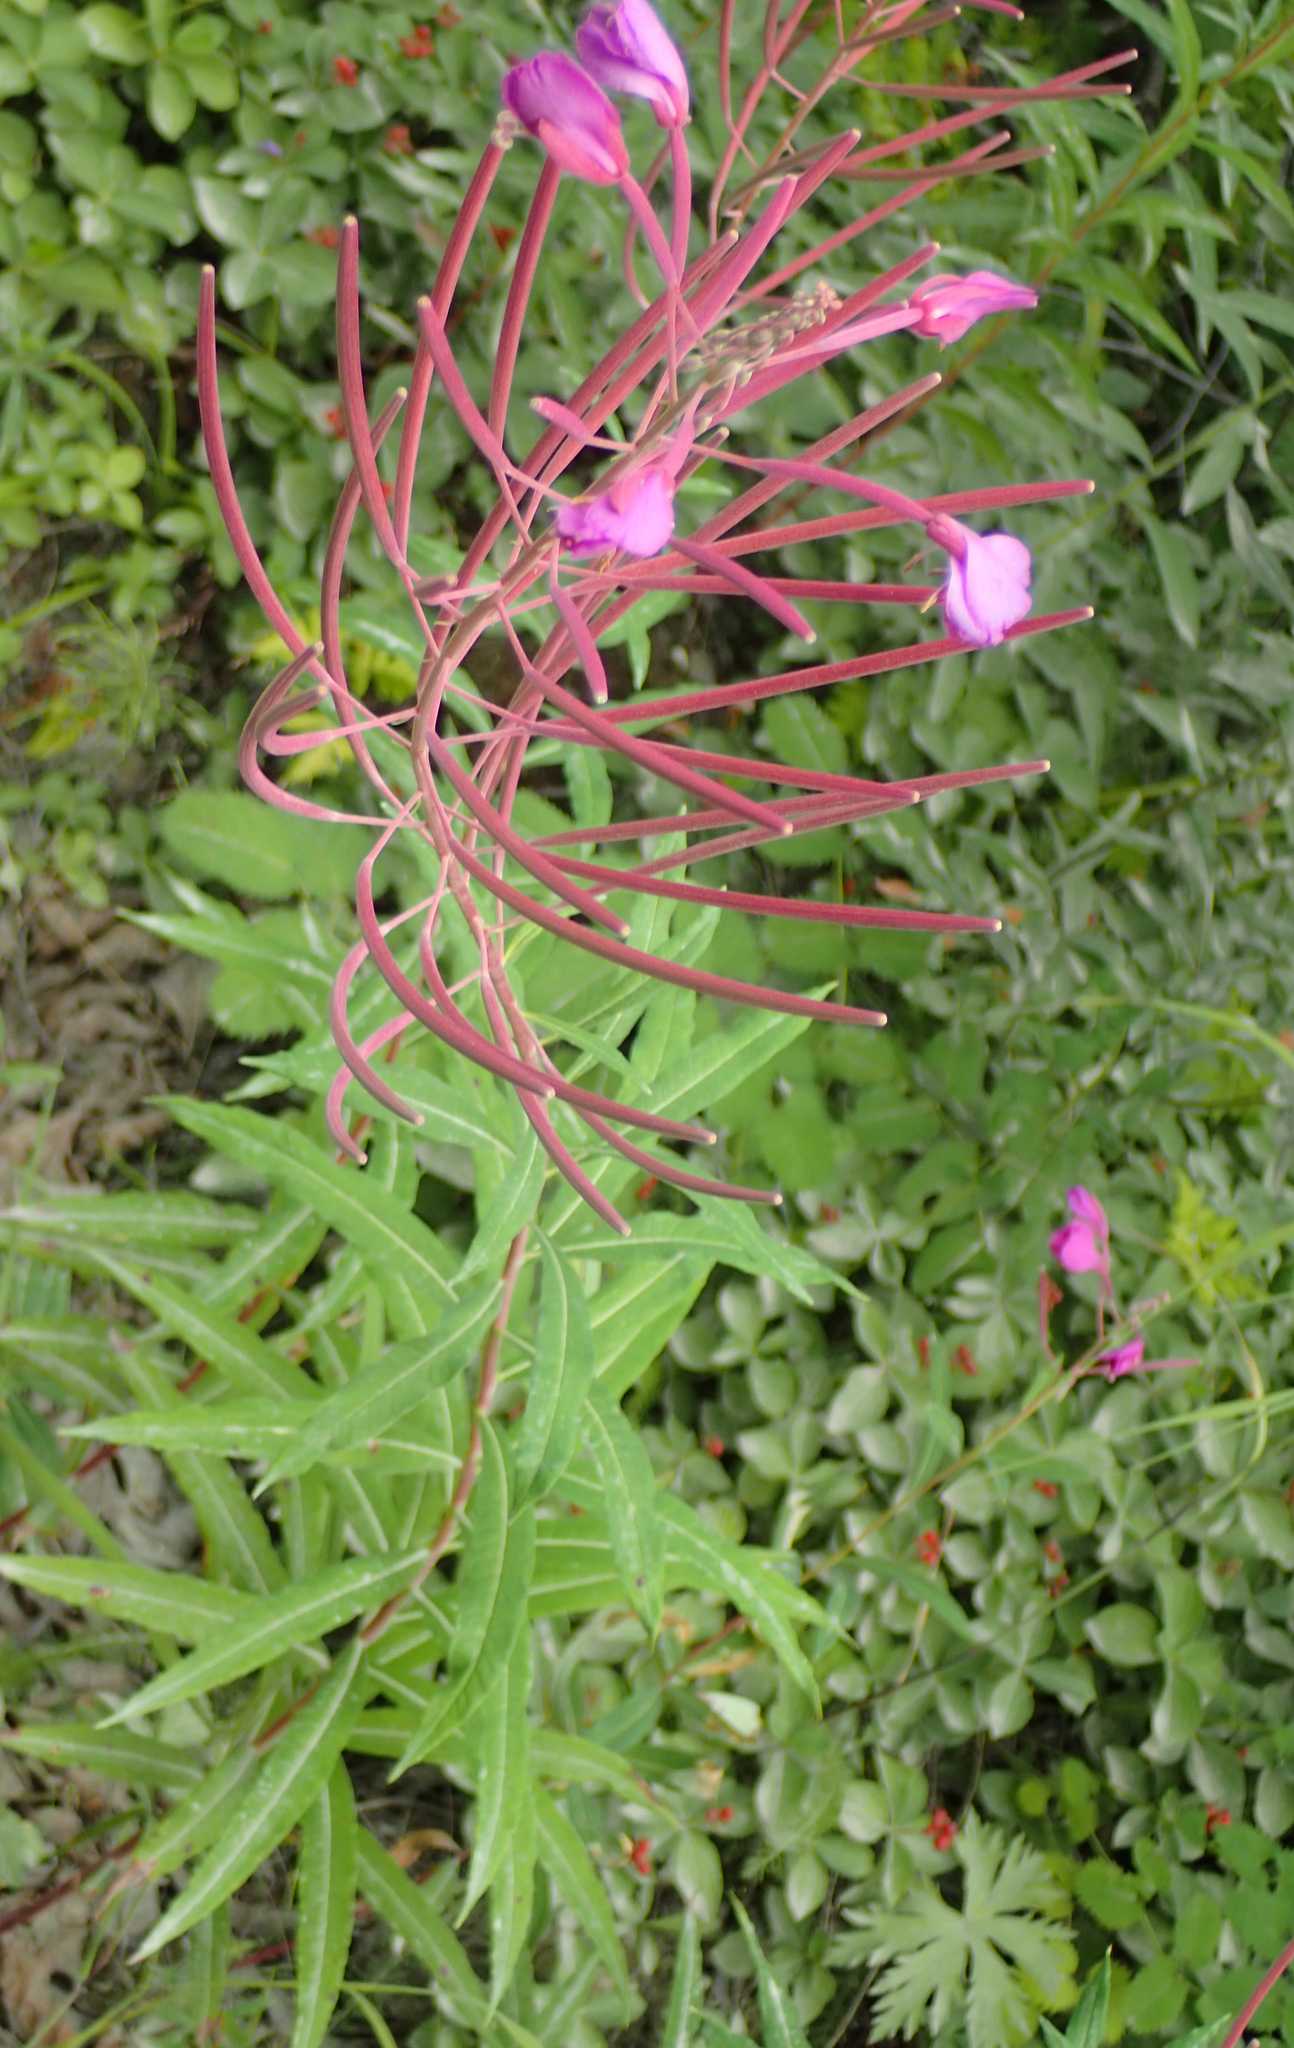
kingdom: Plantae
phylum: Tracheophyta
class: Magnoliopsida
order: Myrtales
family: Onagraceae
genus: Chamaenerion
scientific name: Chamaenerion angustifolium
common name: Fireweed
